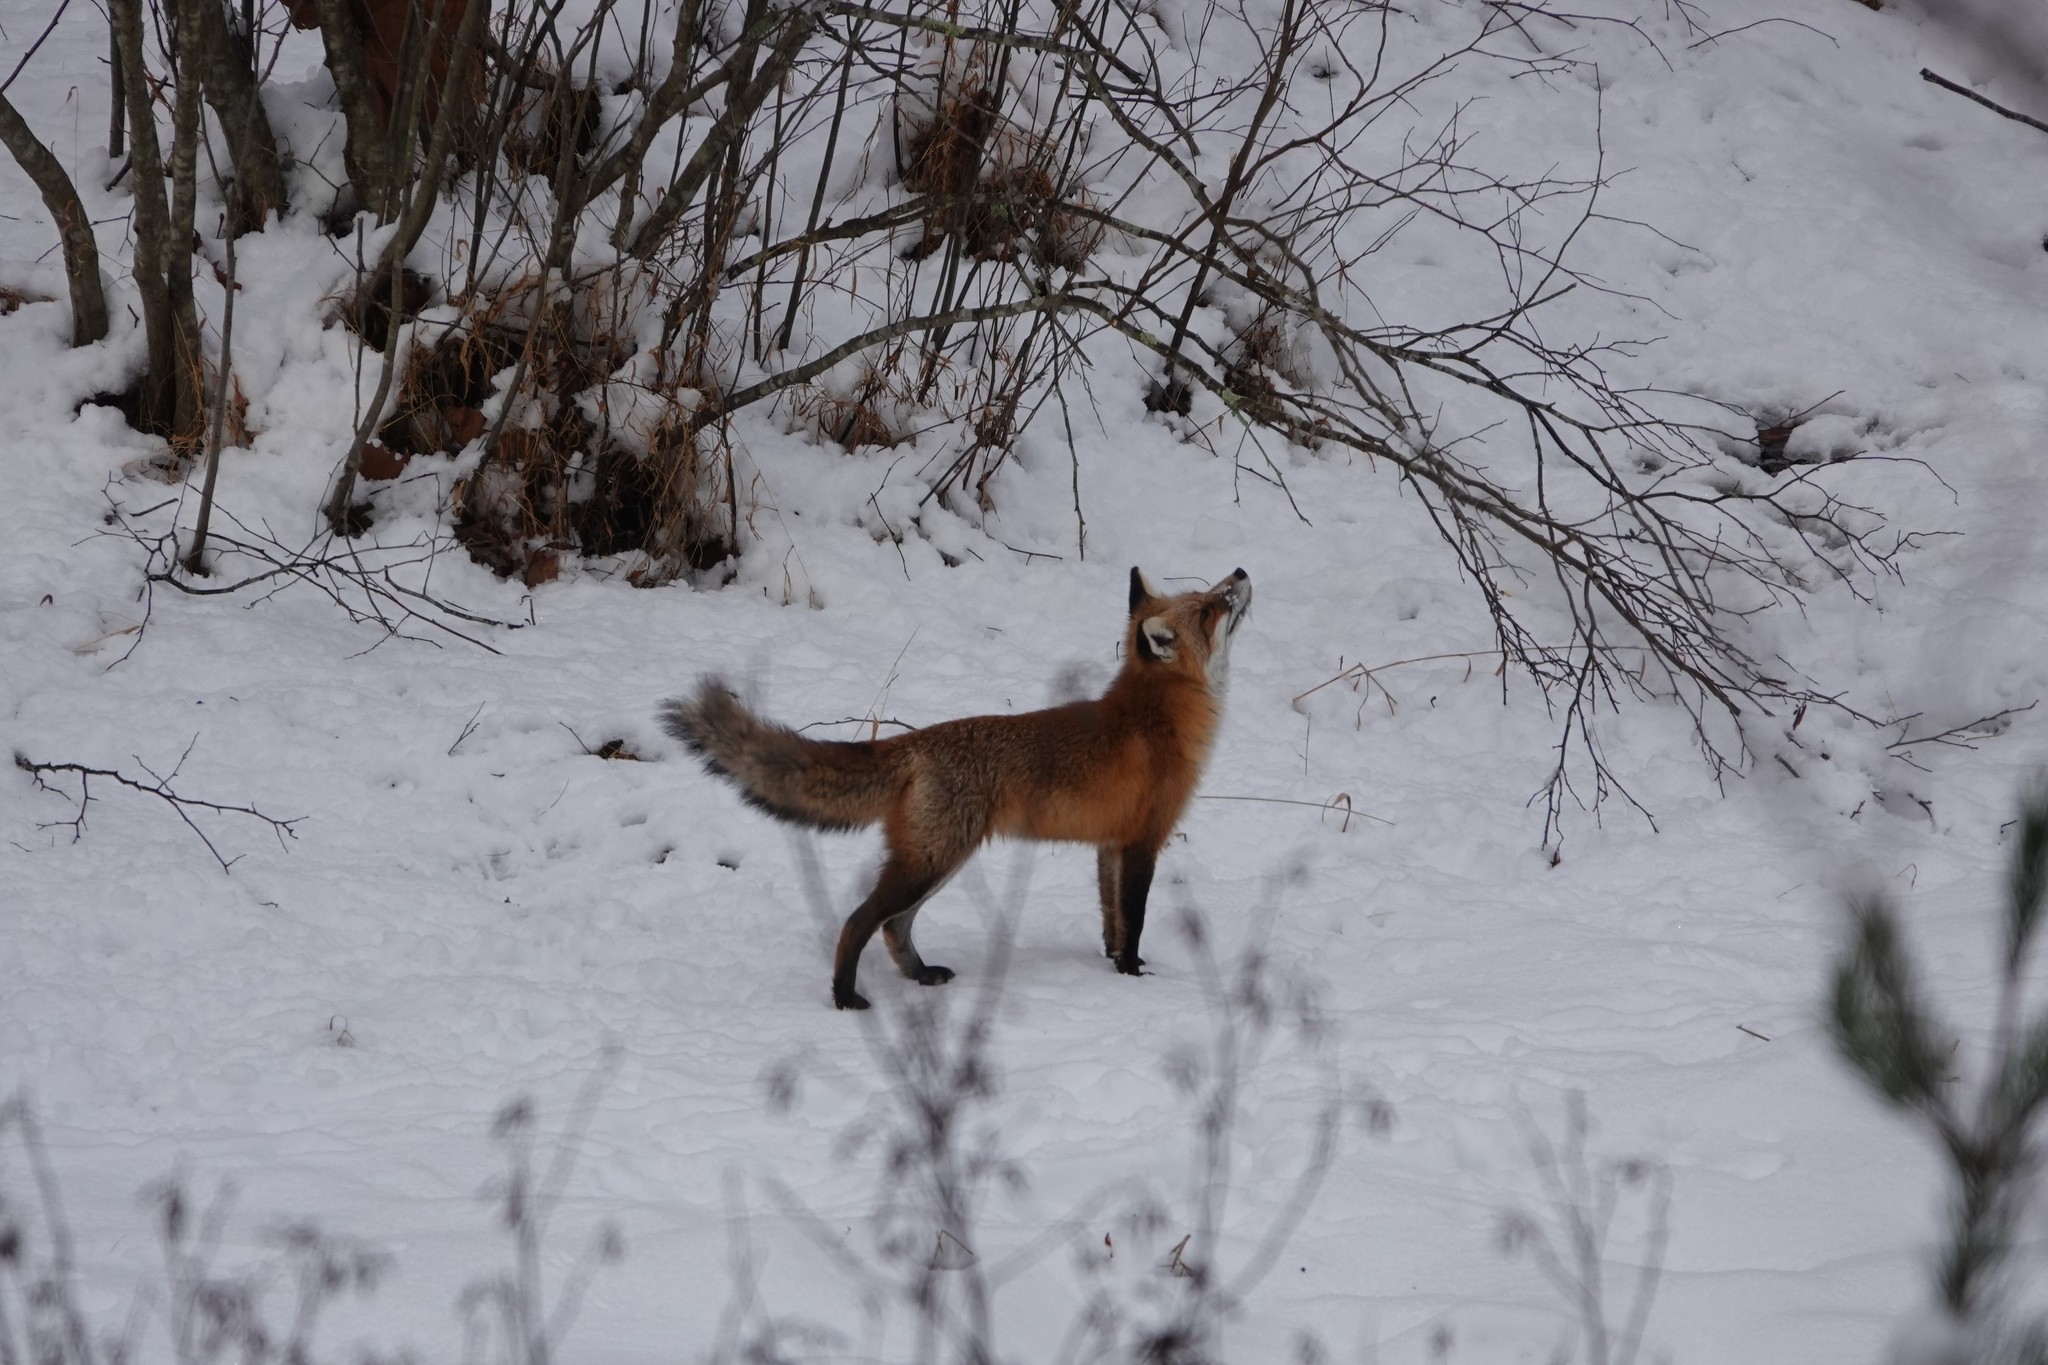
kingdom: Animalia
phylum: Chordata
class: Mammalia
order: Carnivora
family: Canidae
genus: Vulpes
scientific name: Vulpes vulpes
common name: Red fox
